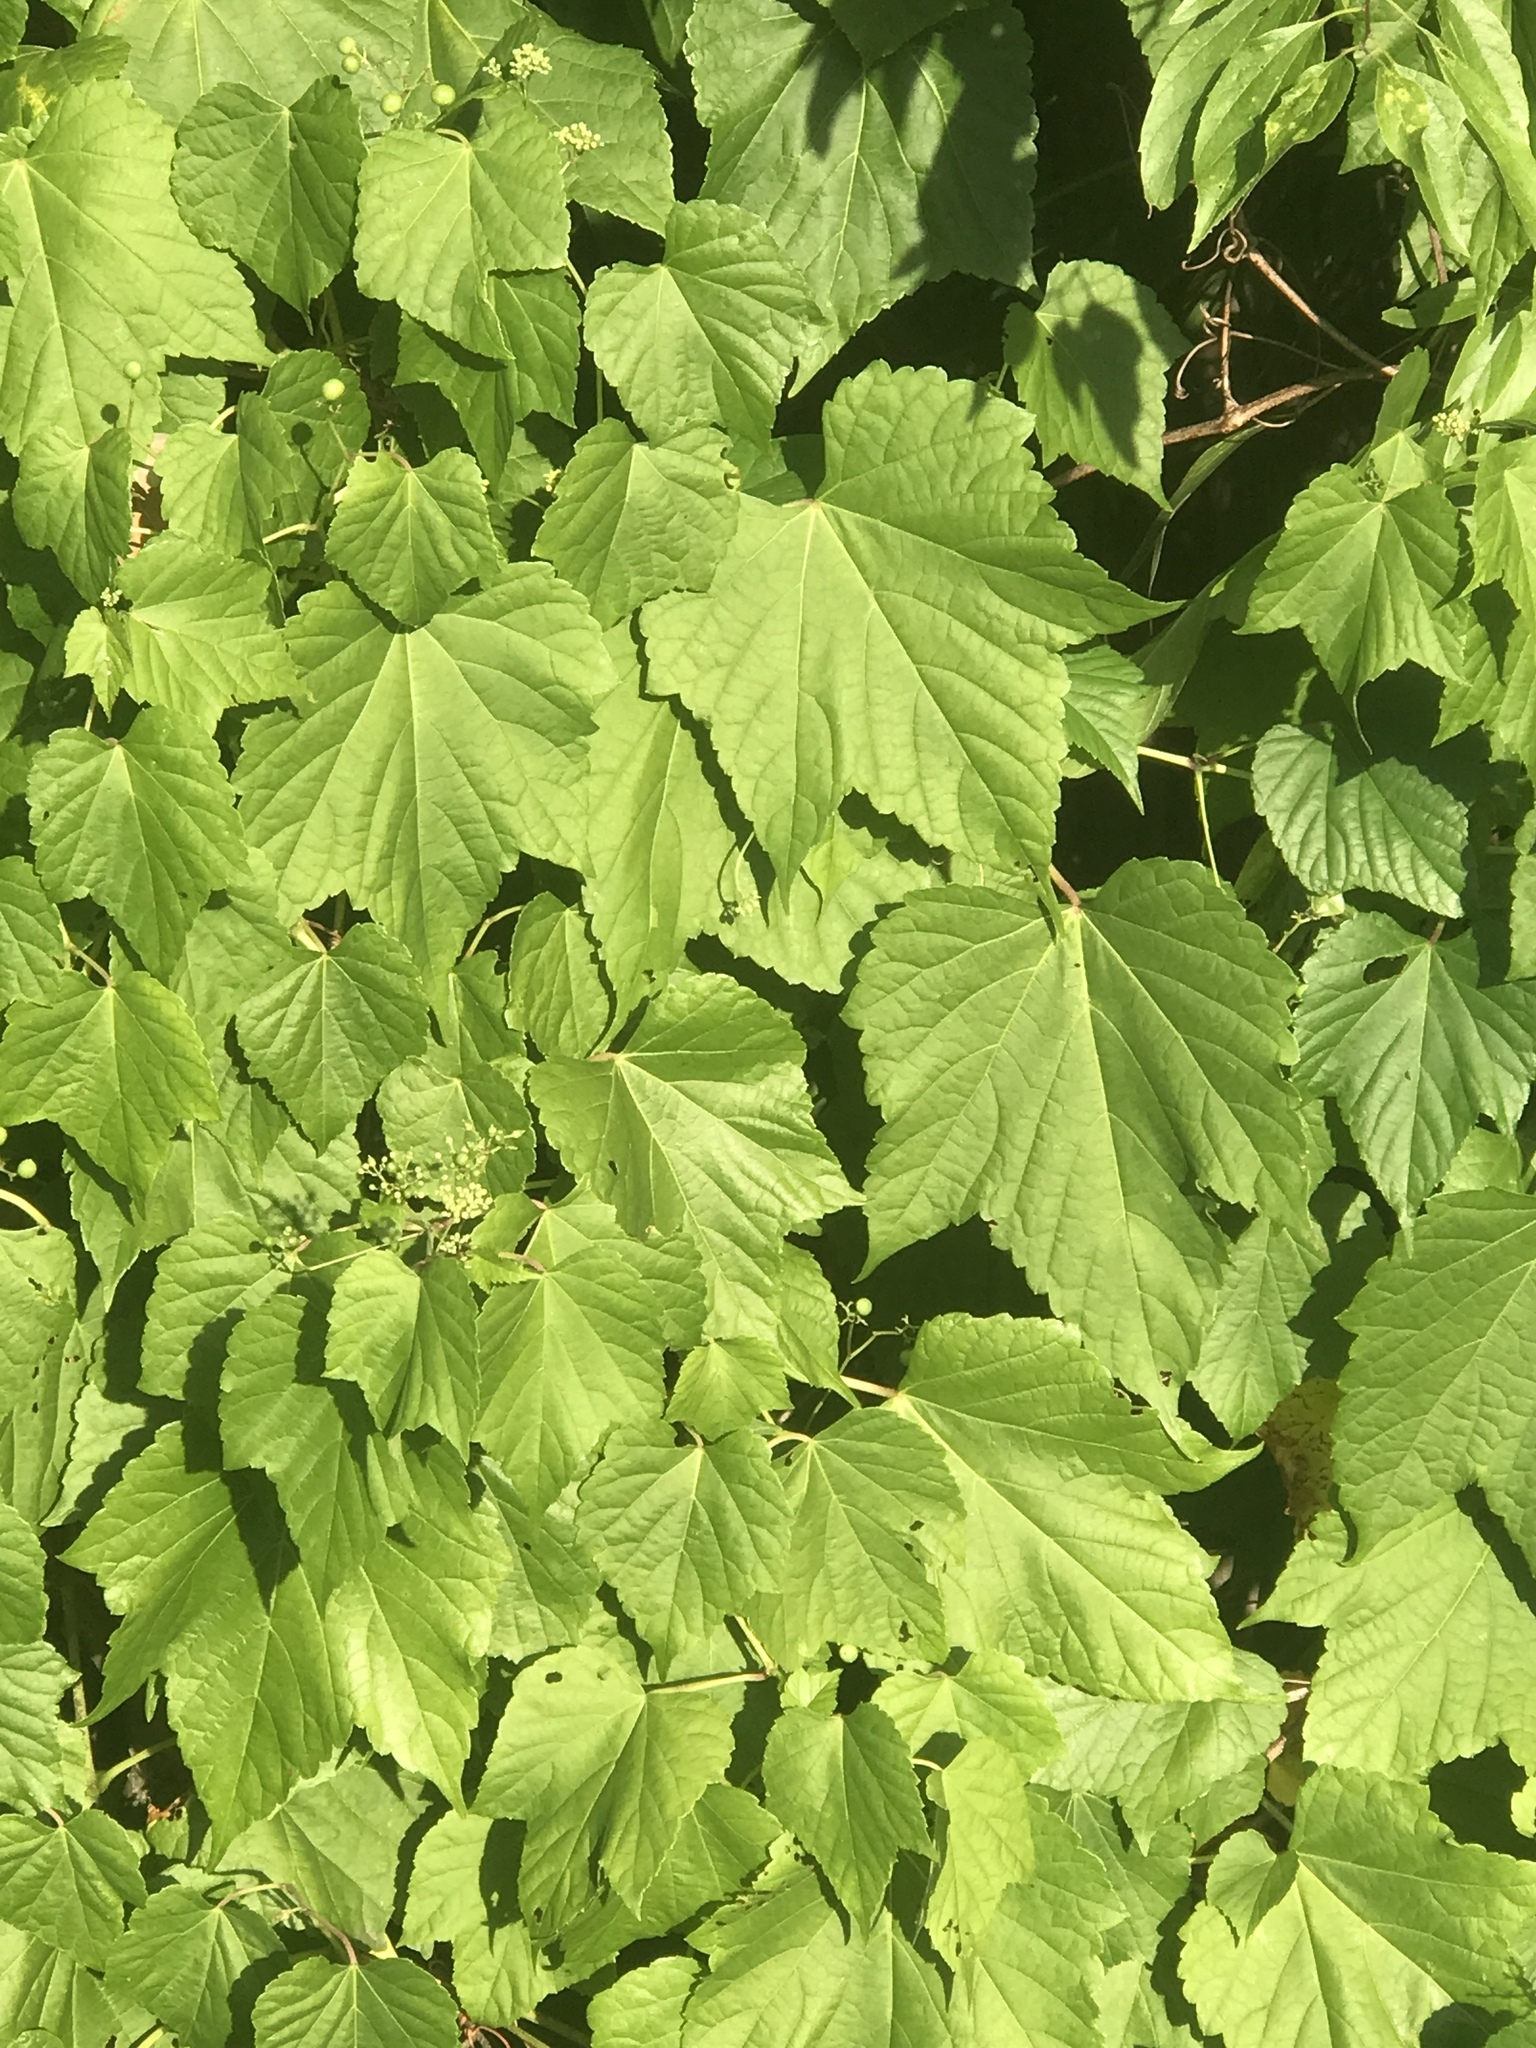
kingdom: Plantae
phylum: Tracheophyta
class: Magnoliopsida
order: Vitales
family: Vitaceae
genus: Ampelopsis
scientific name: Ampelopsis glandulosa
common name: Amur peppervine
